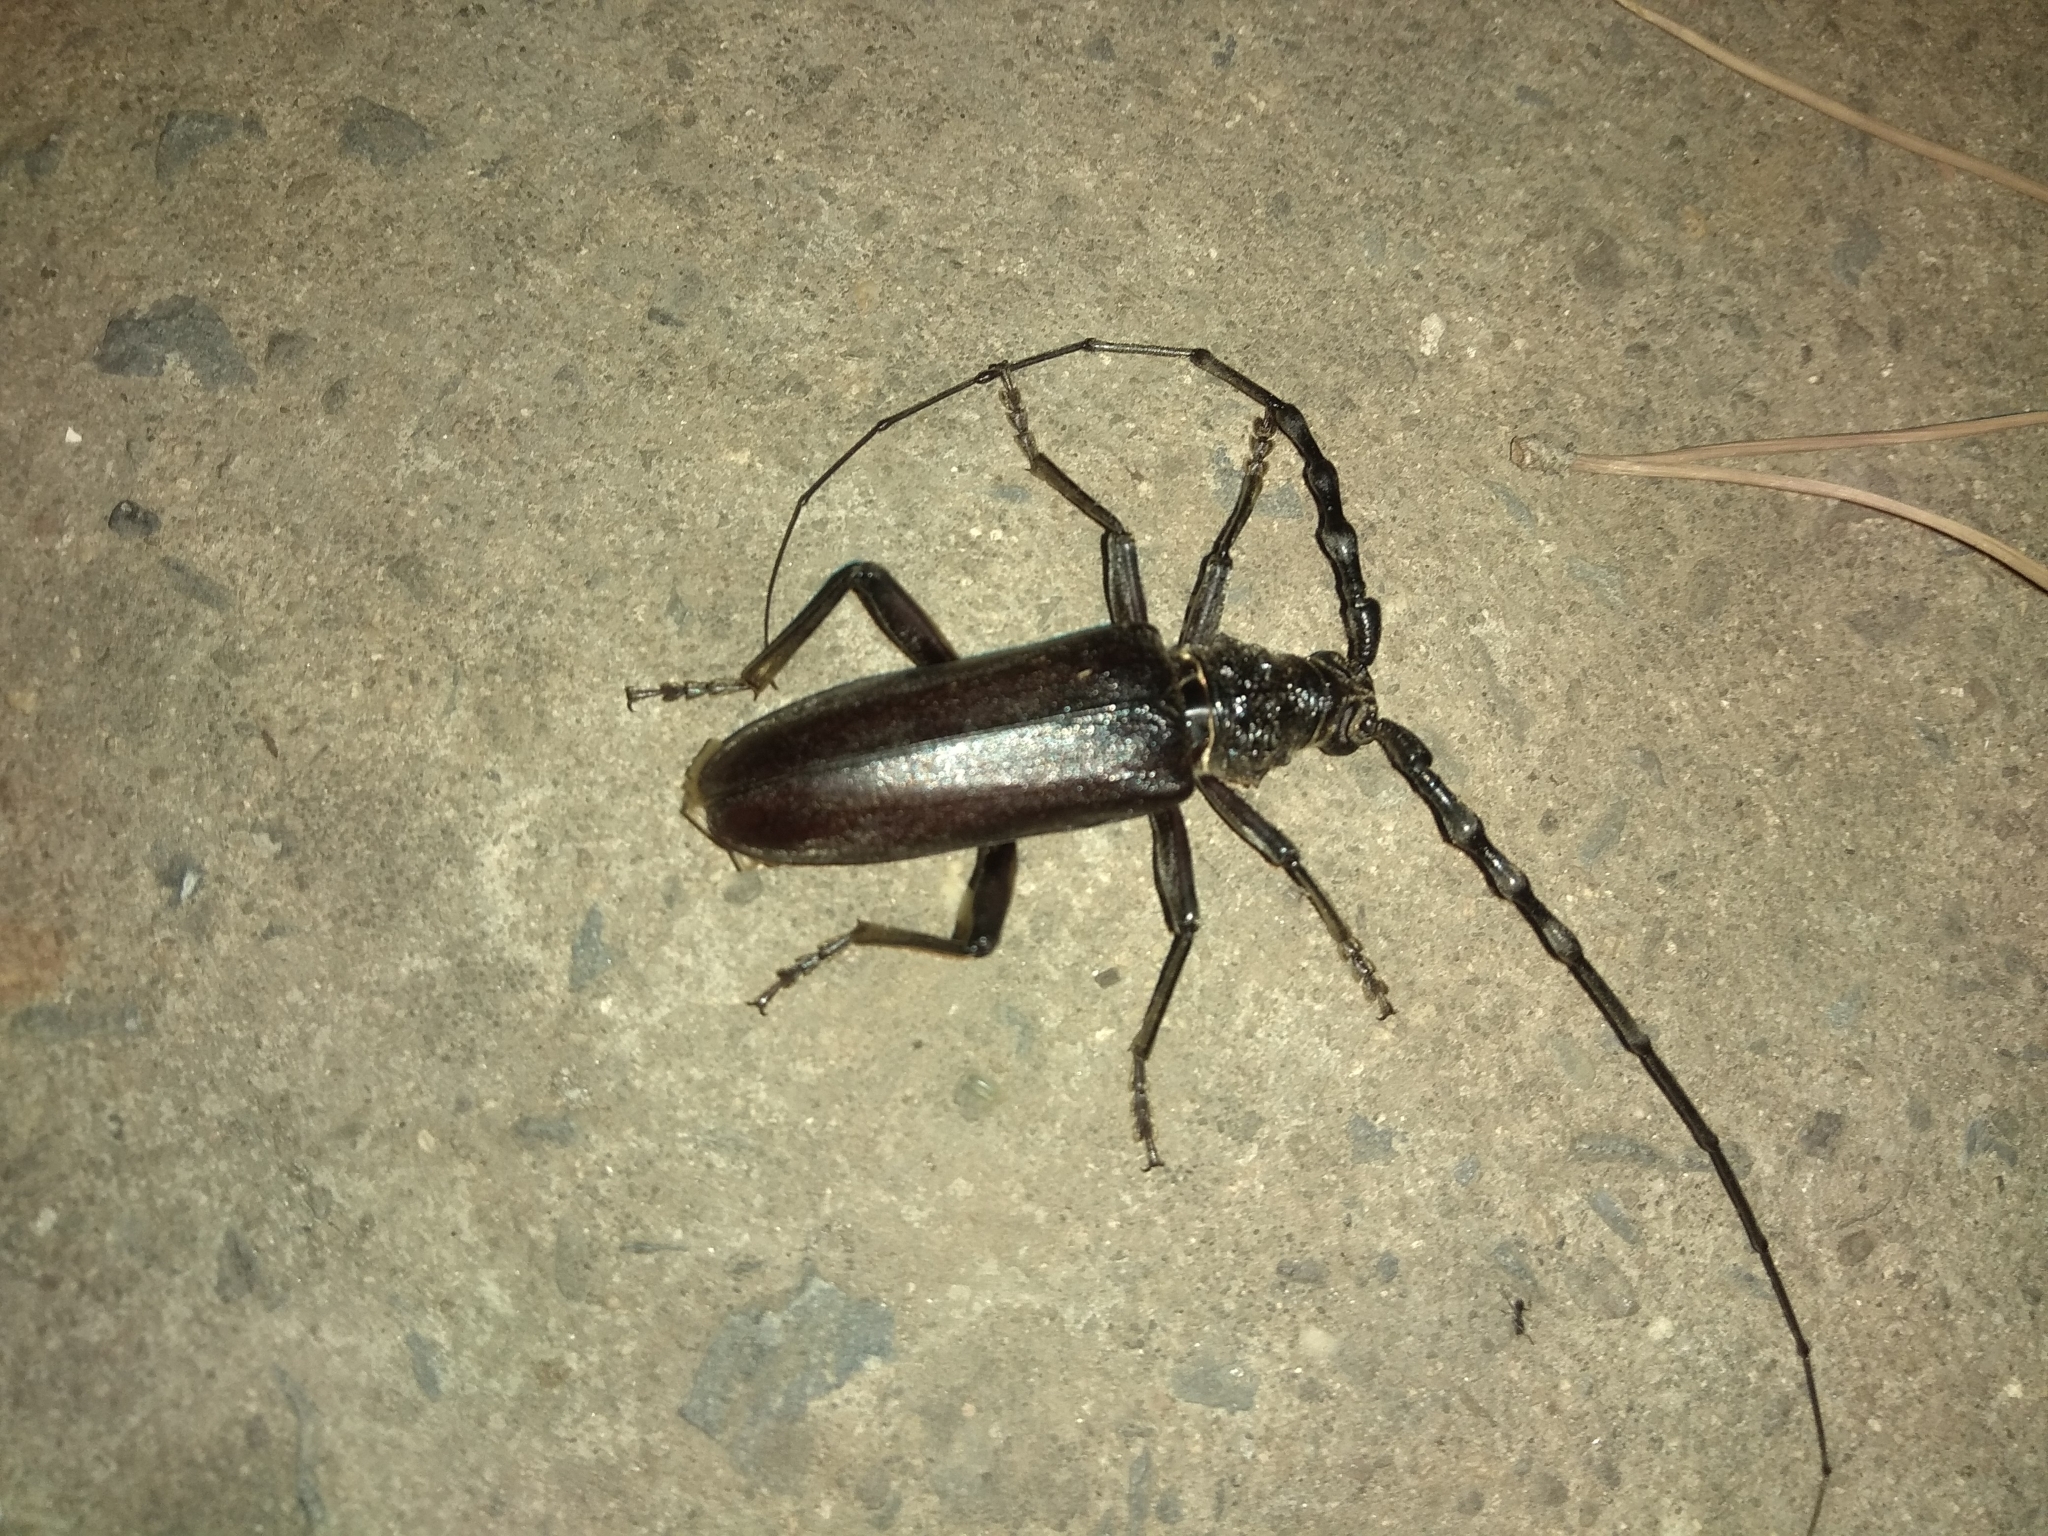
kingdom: Animalia
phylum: Arthropoda
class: Insecta
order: Coleoptera
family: Cerambycidae
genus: Cerambyx
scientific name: Cerambyx welensii
